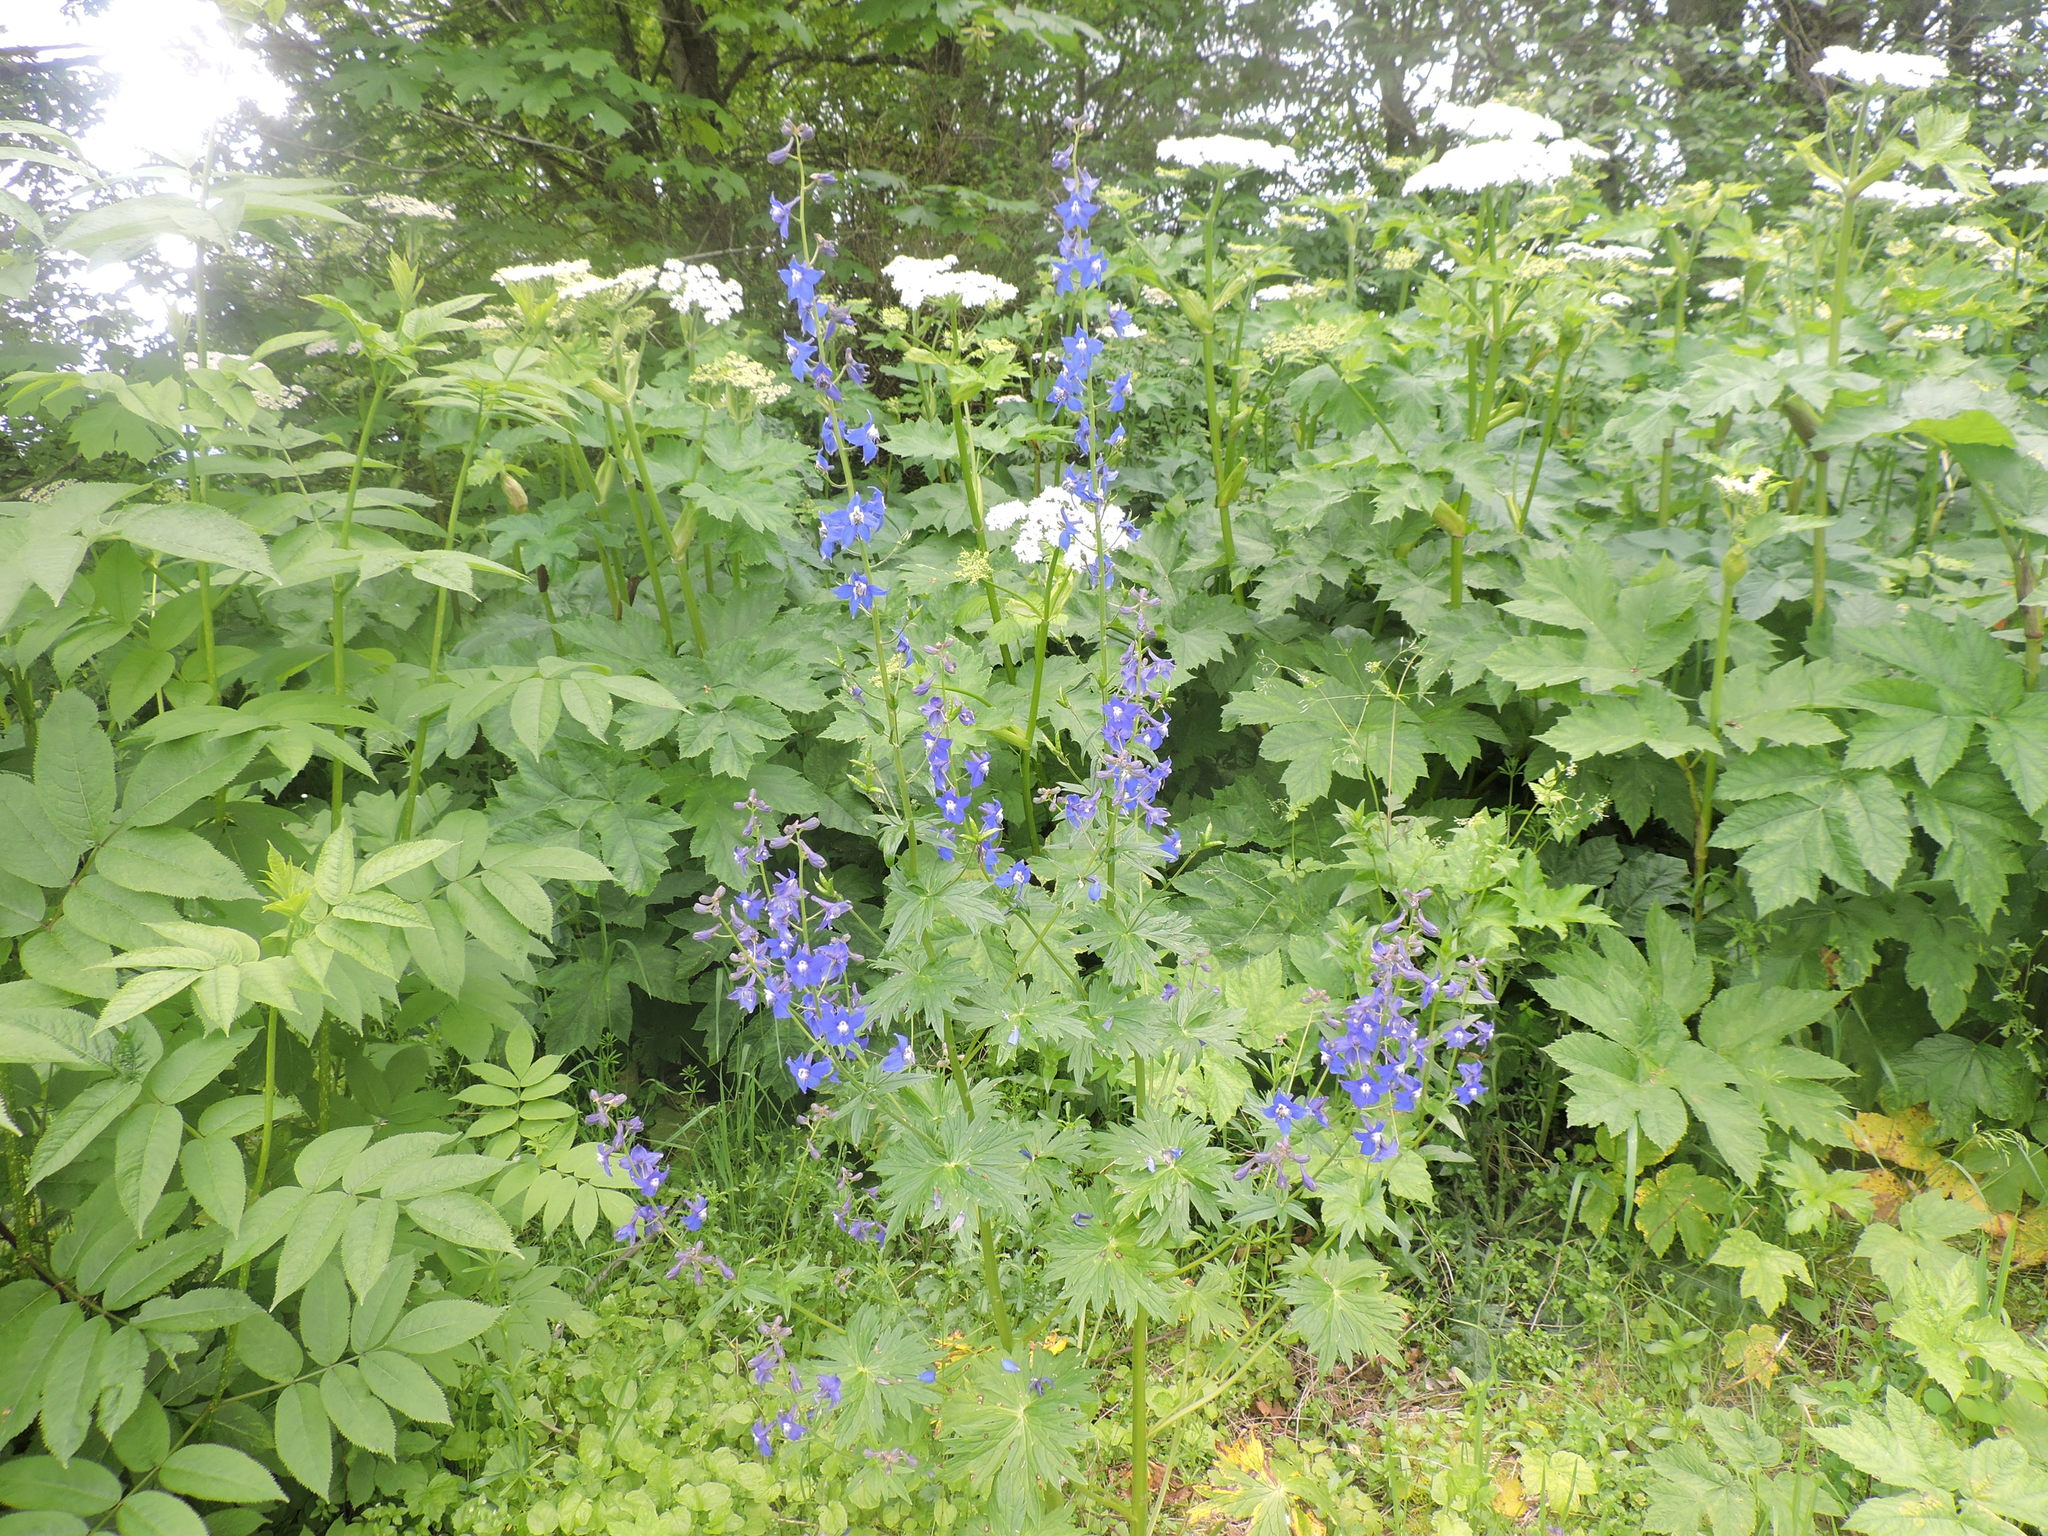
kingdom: Plantae
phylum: Tracheophyta
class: Magnoliopsida
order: Ranunculales
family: Ranunculaceae
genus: Delphinium
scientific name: Delphinium trolliifolium
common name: Cow-poison
